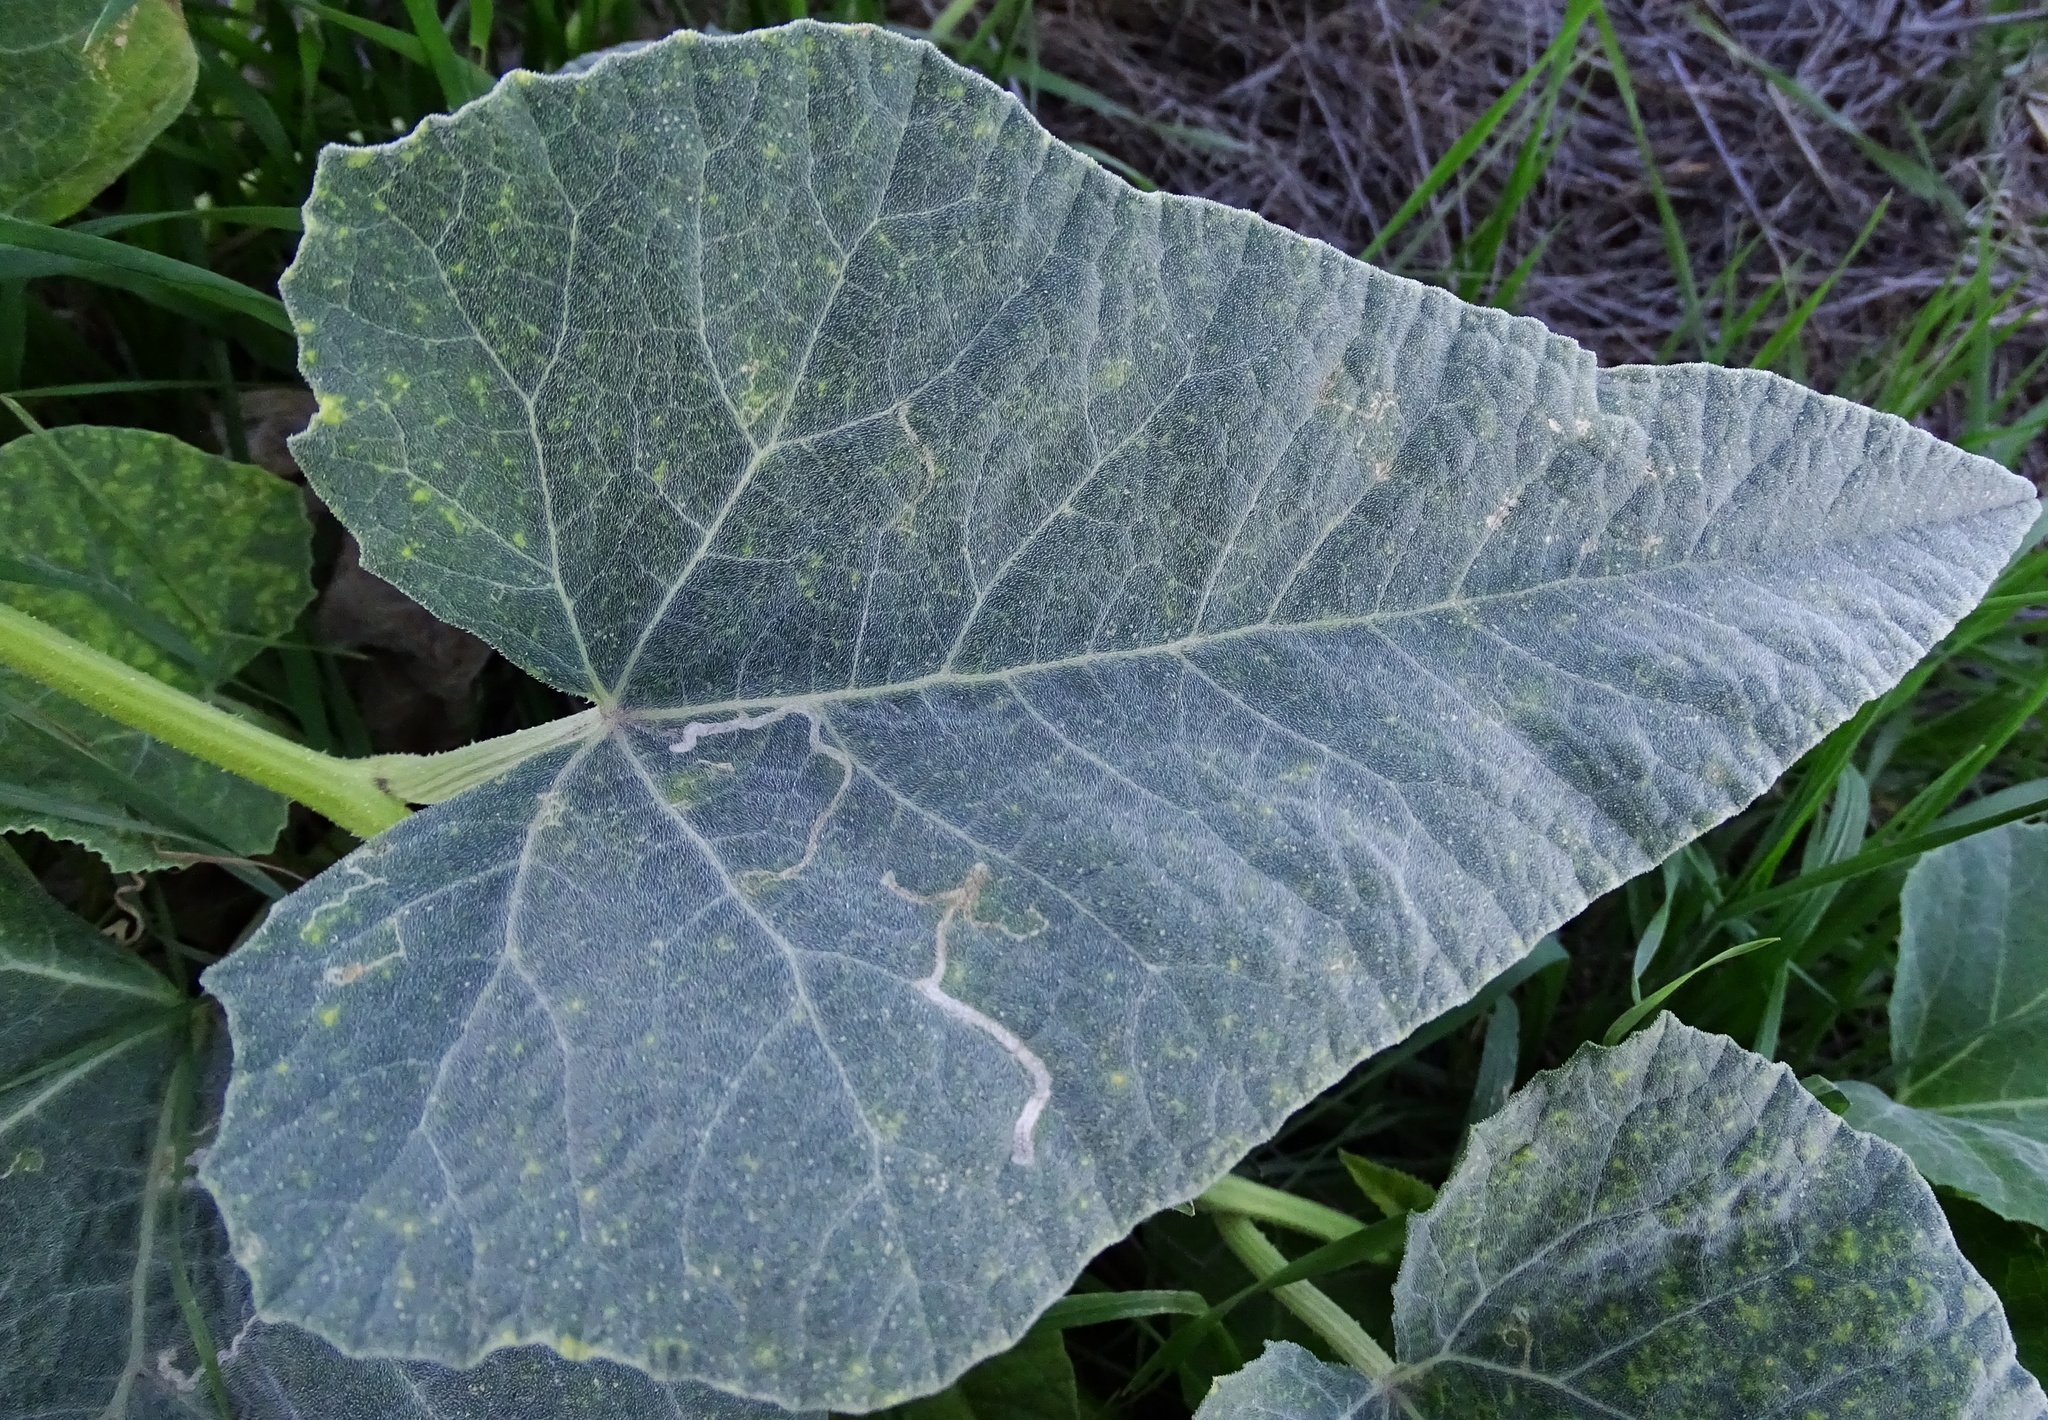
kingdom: Plantae
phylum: Tracheophyta
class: Magnoliopsida
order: Cucurbitales
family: Cucurbitaceae
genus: Cucurbita
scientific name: Cucurbita foetidissima
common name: Buffalo gourd
